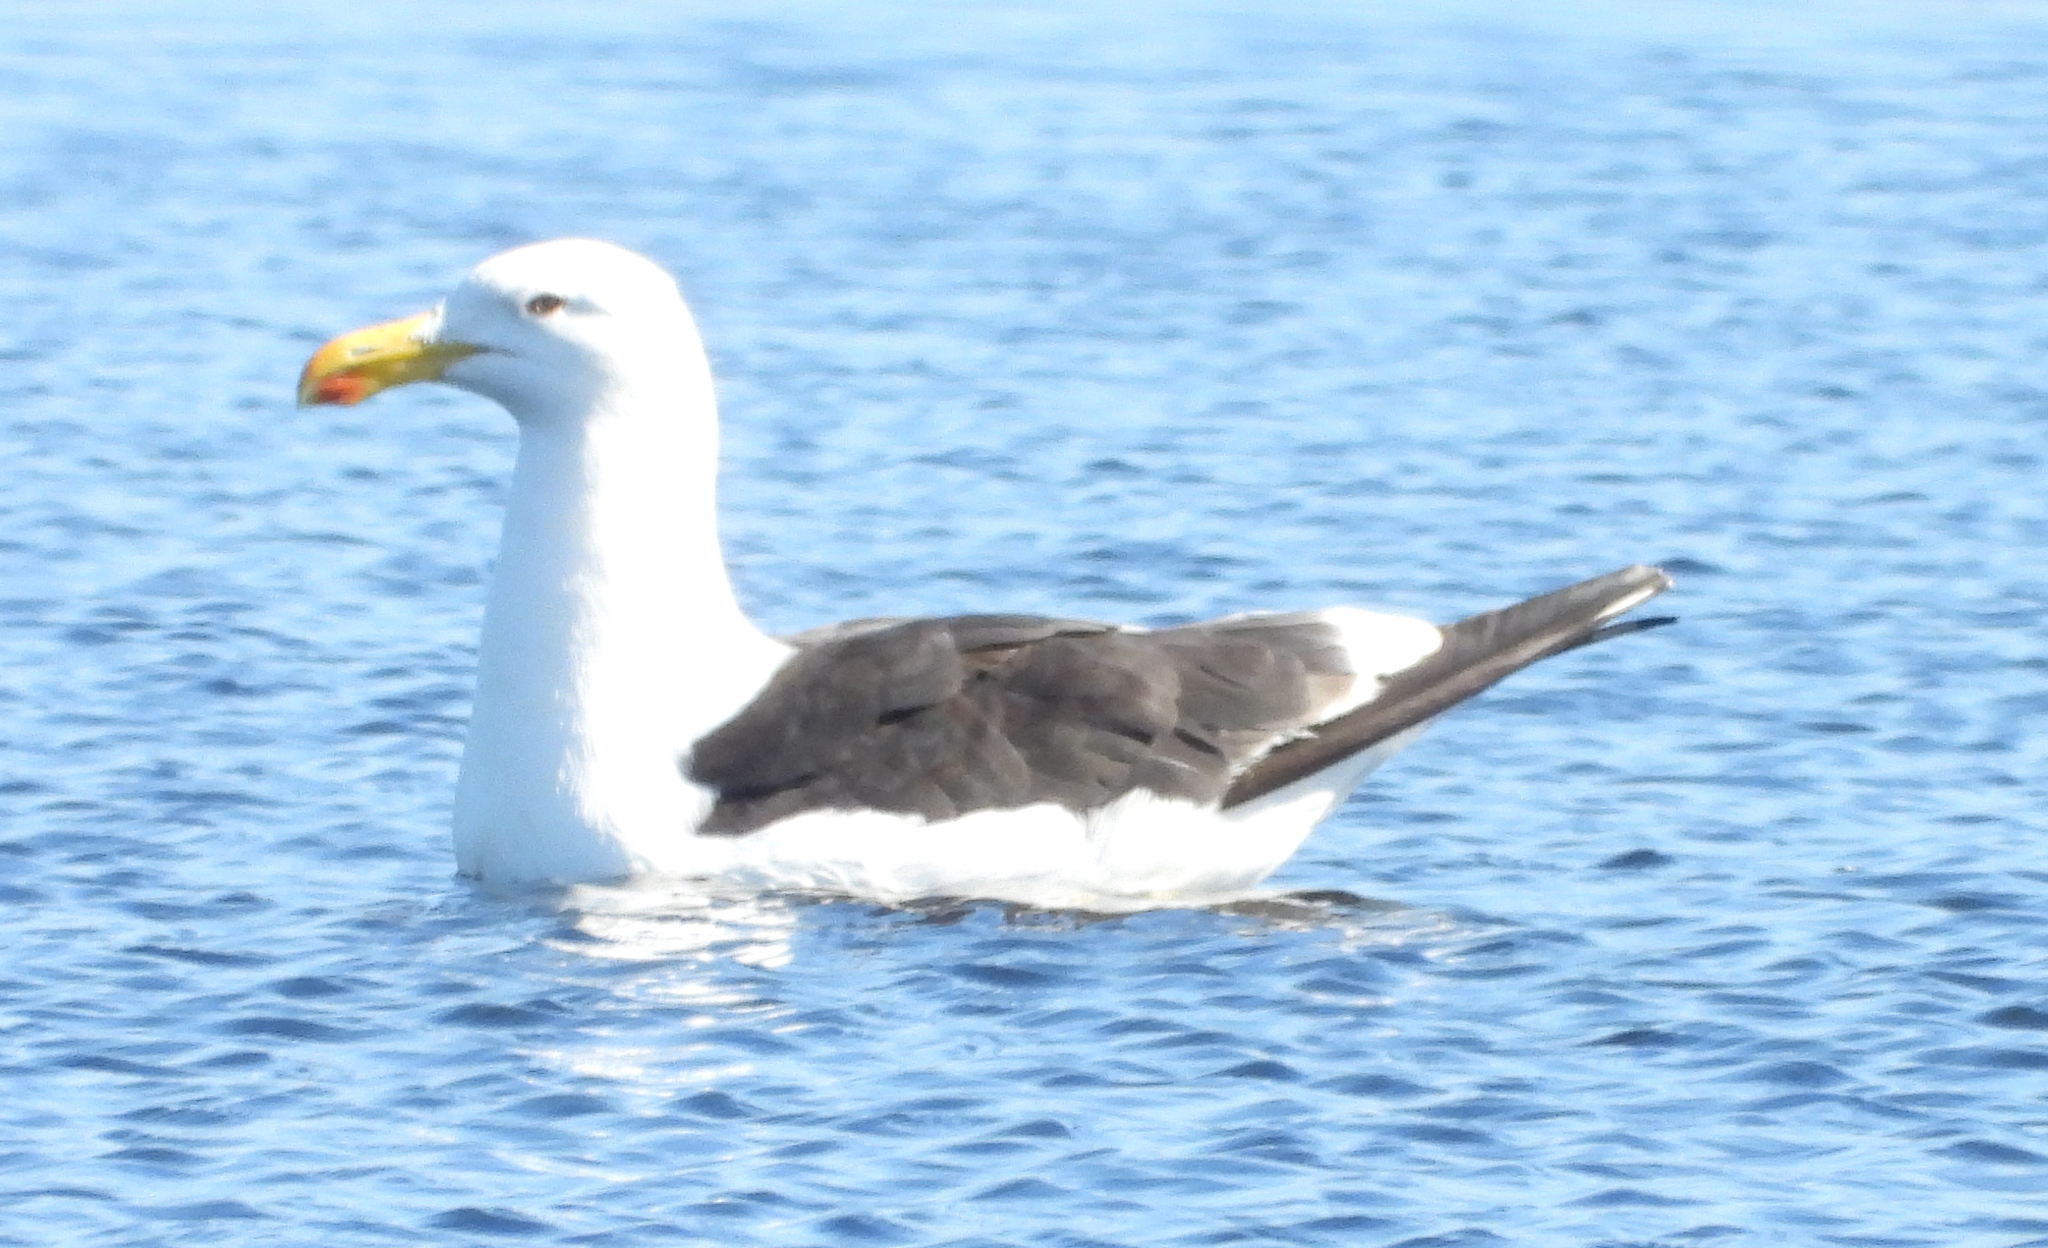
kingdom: Animalia
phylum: Chordata
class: Aves
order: Charadriiformes
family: Laridae
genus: Larus
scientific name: Larus dominicanus
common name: Kelp gull
